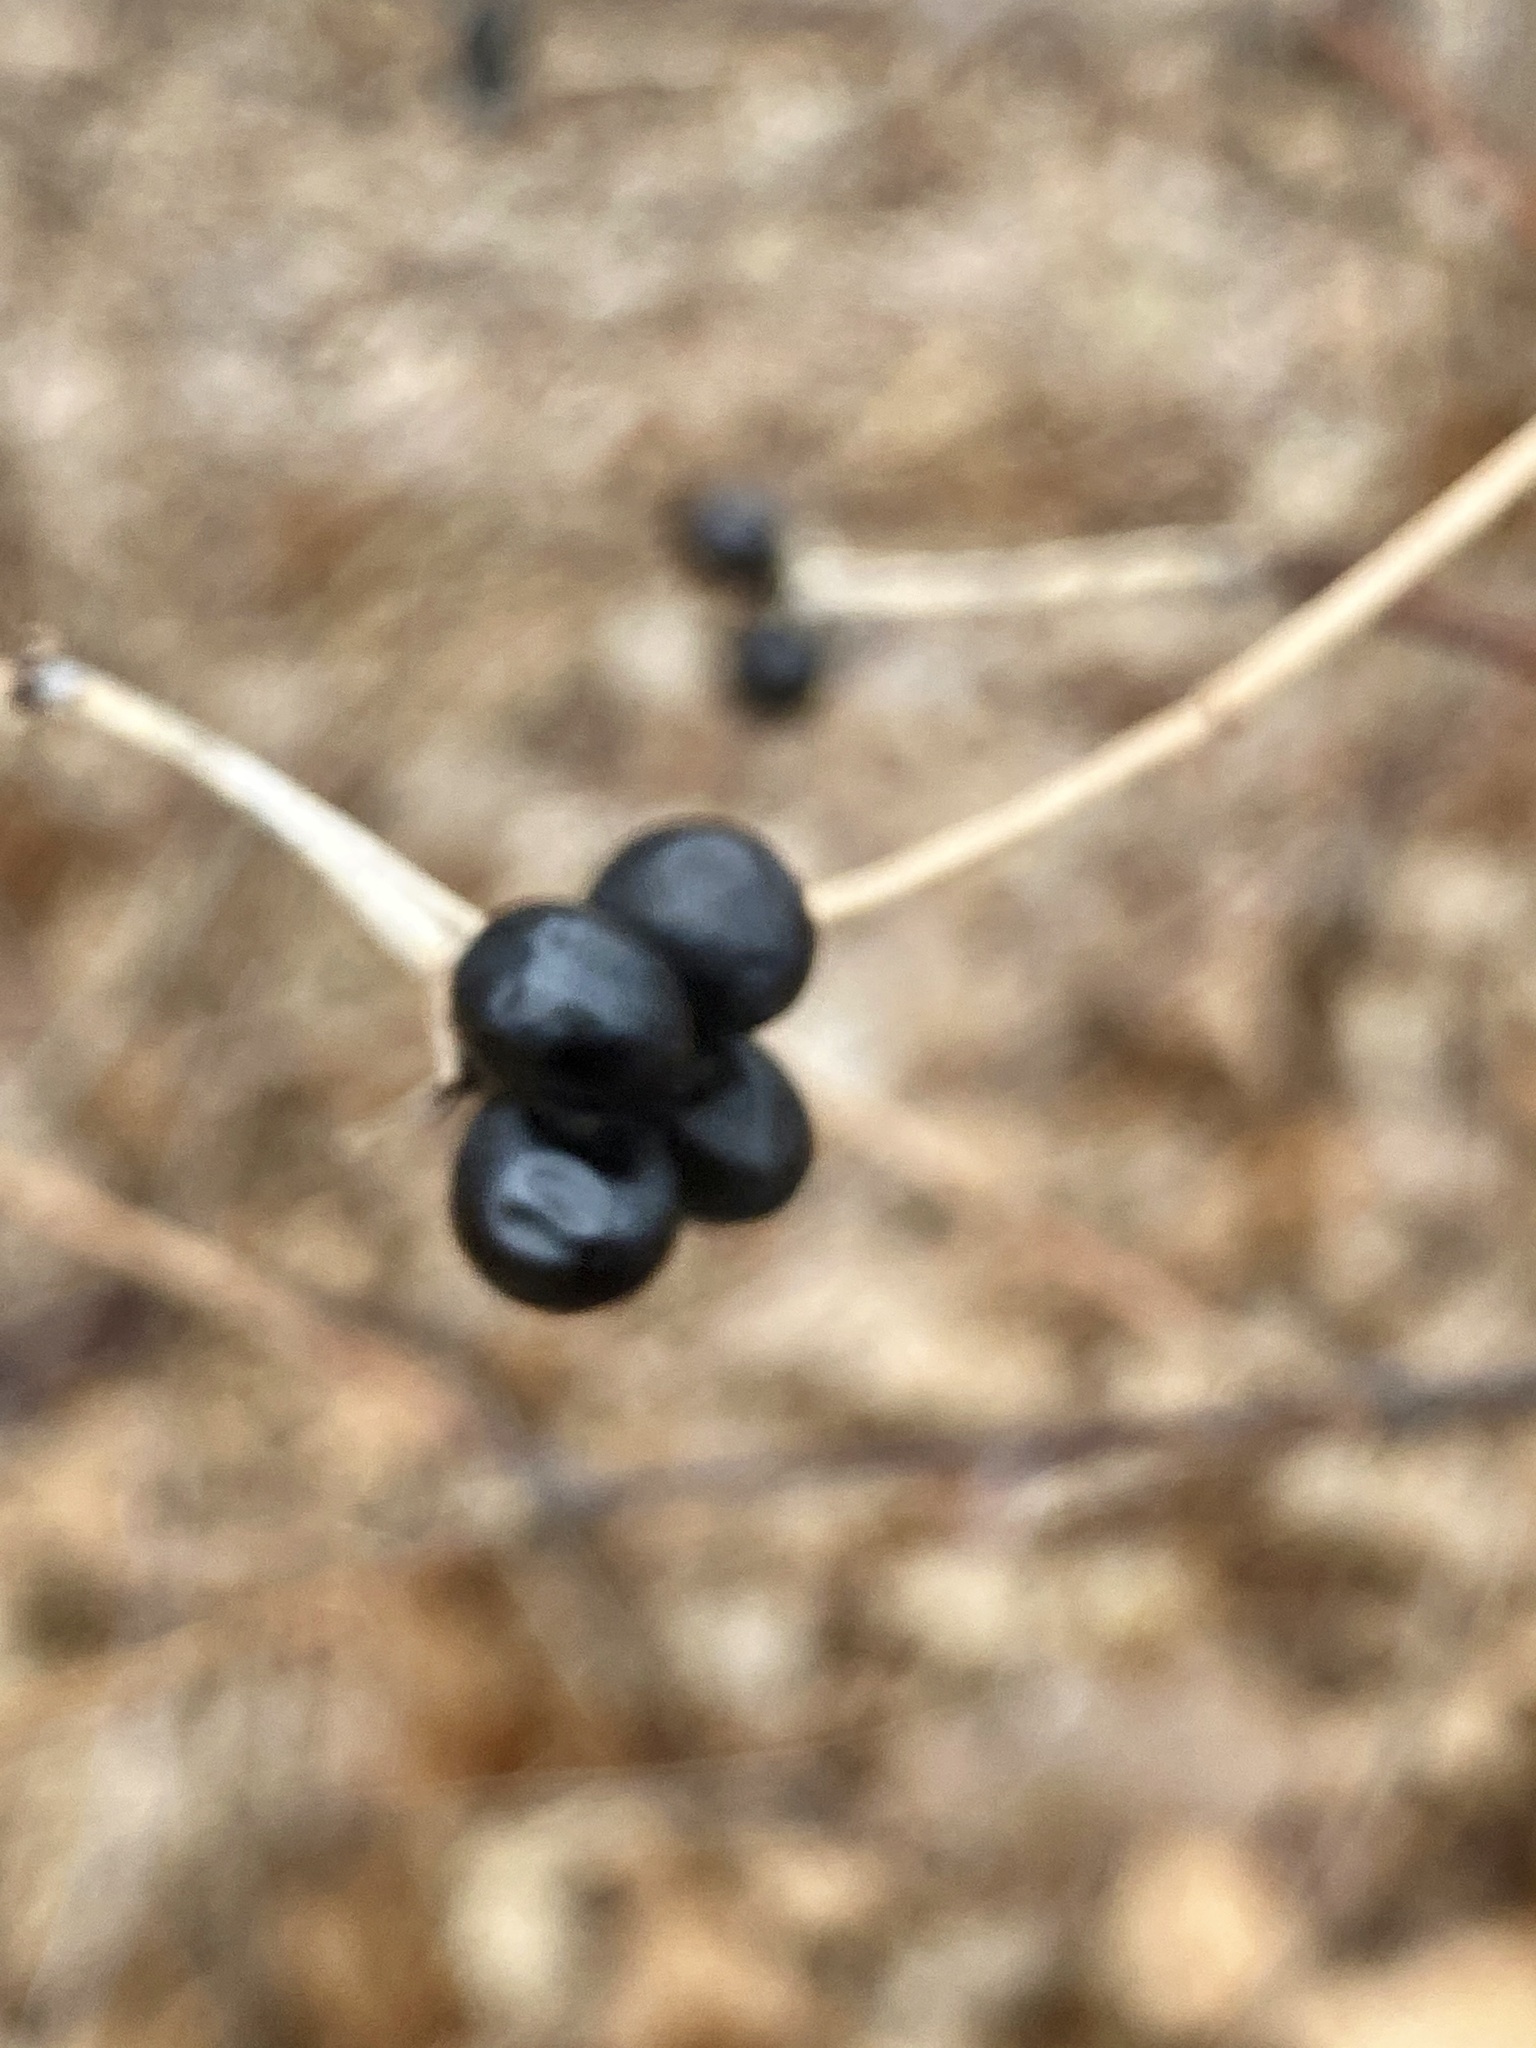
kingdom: Plantae
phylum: Tracheophyta
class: Magnoliopsida
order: Rosales
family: Rosaceae
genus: Rhodotypos
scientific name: Rhodotypos scandens
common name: Jetbead
